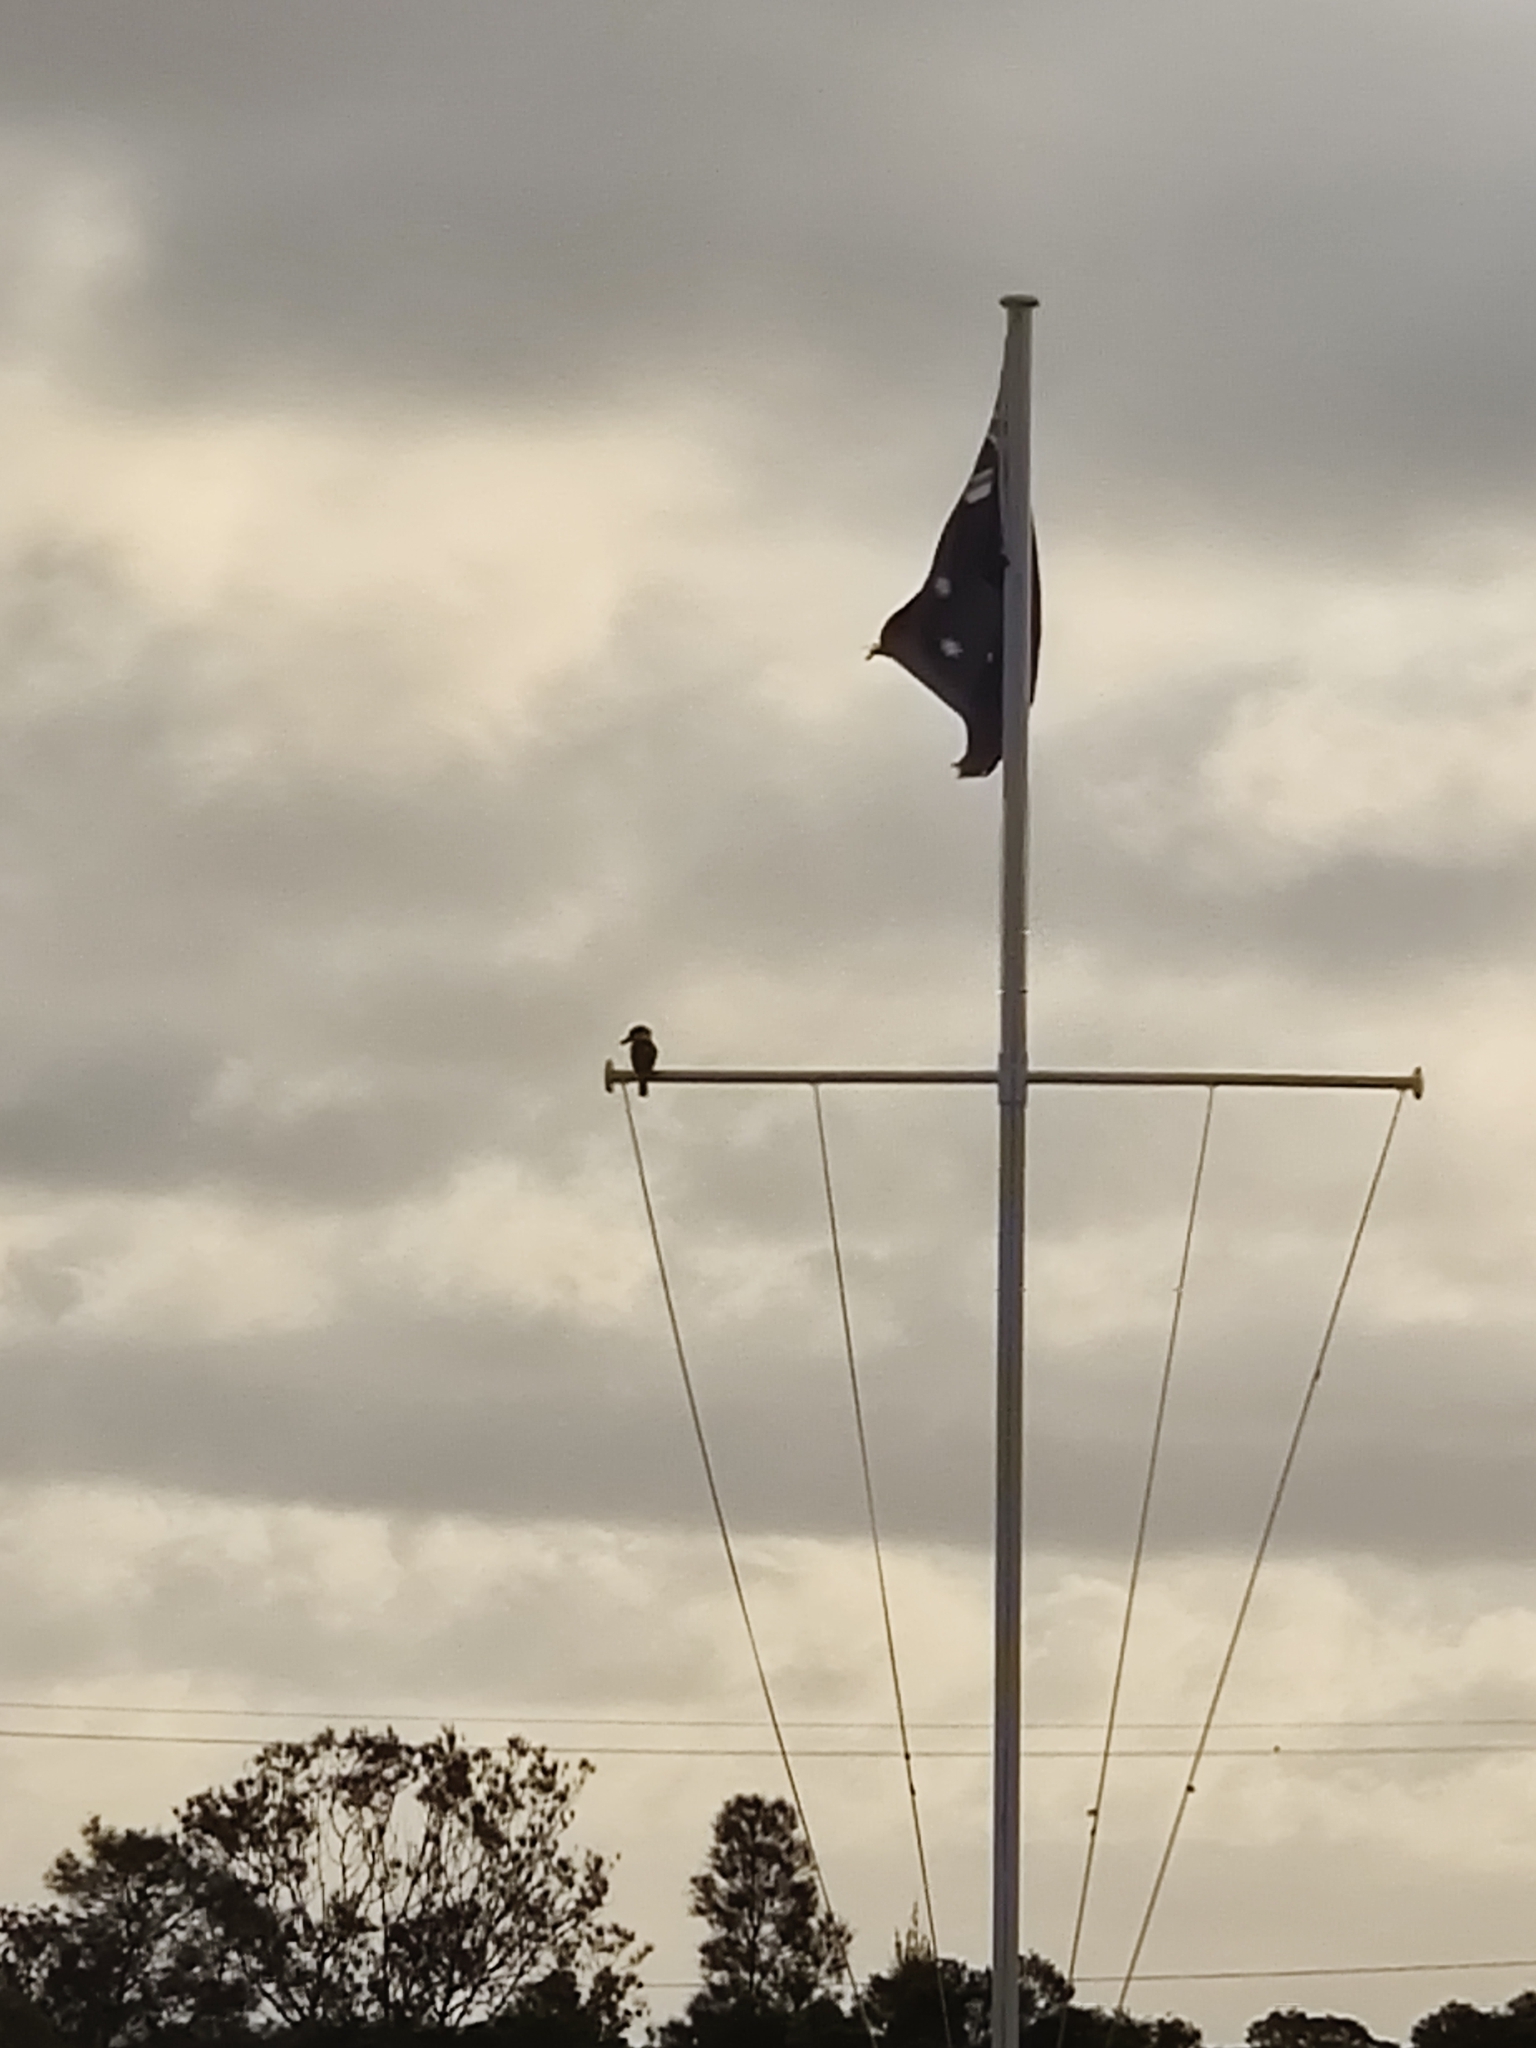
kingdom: Animalia
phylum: Chordata
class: Aves
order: Coraciiformes
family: Alcedinidae
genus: Dacelo
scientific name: Dacelo novaeguineae
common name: Laughing kookaburra
